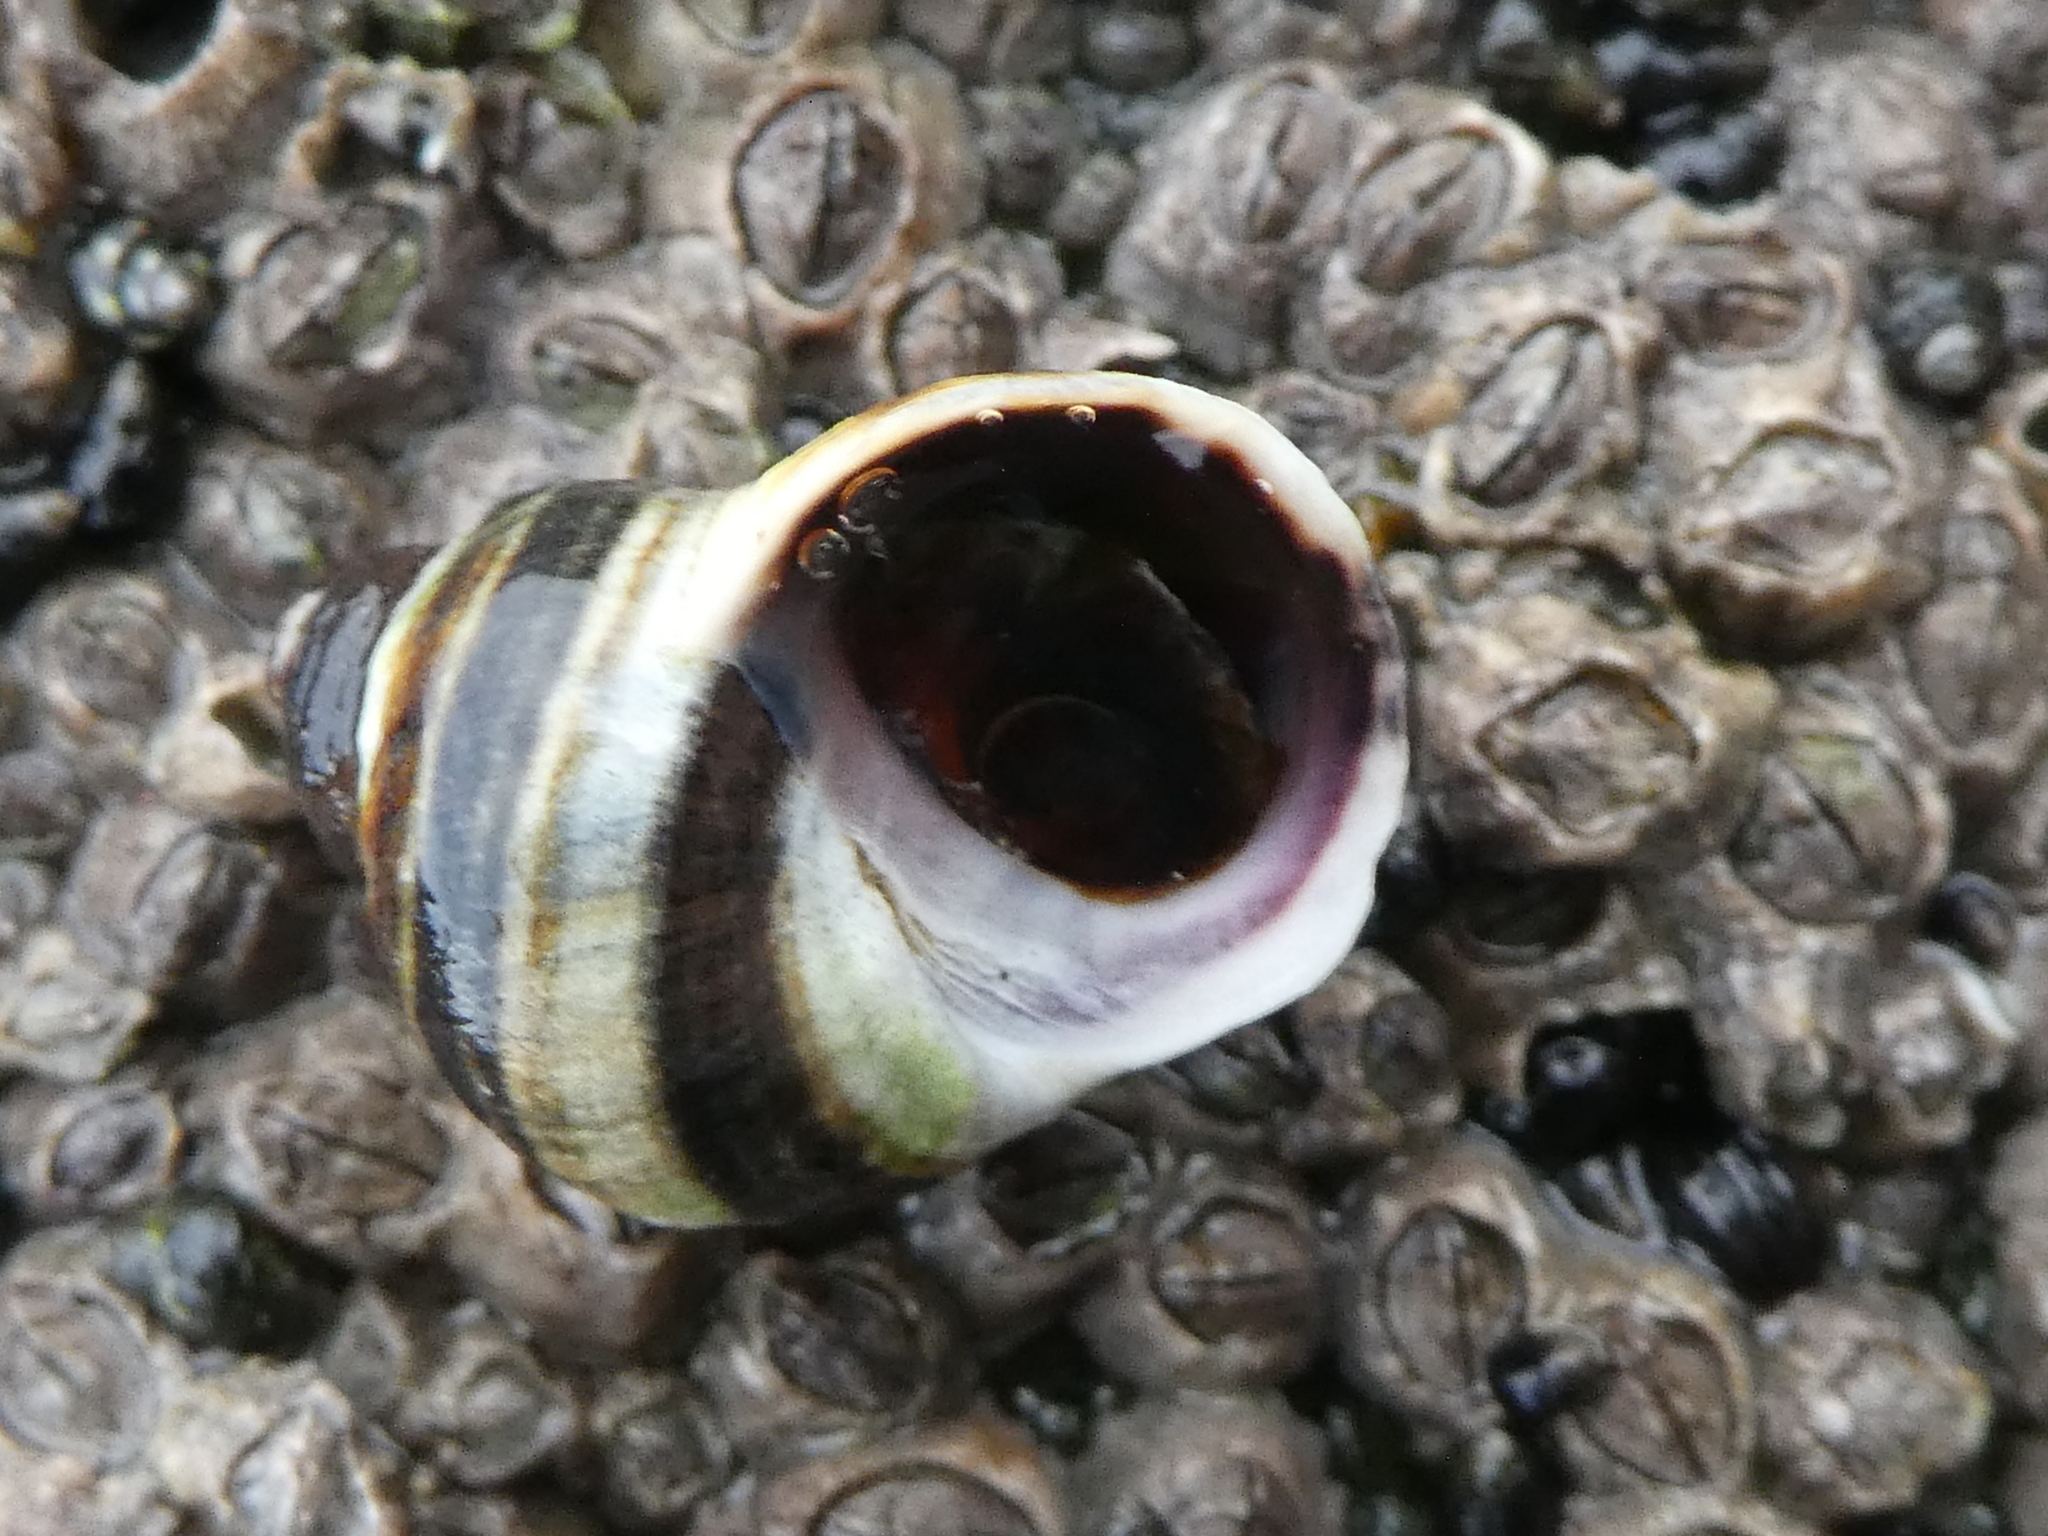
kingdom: Animalia
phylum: Mollusca
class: Gastropoda
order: Littorinimorpha
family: Littorinidae
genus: Littorina
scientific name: Littorina sitkana
